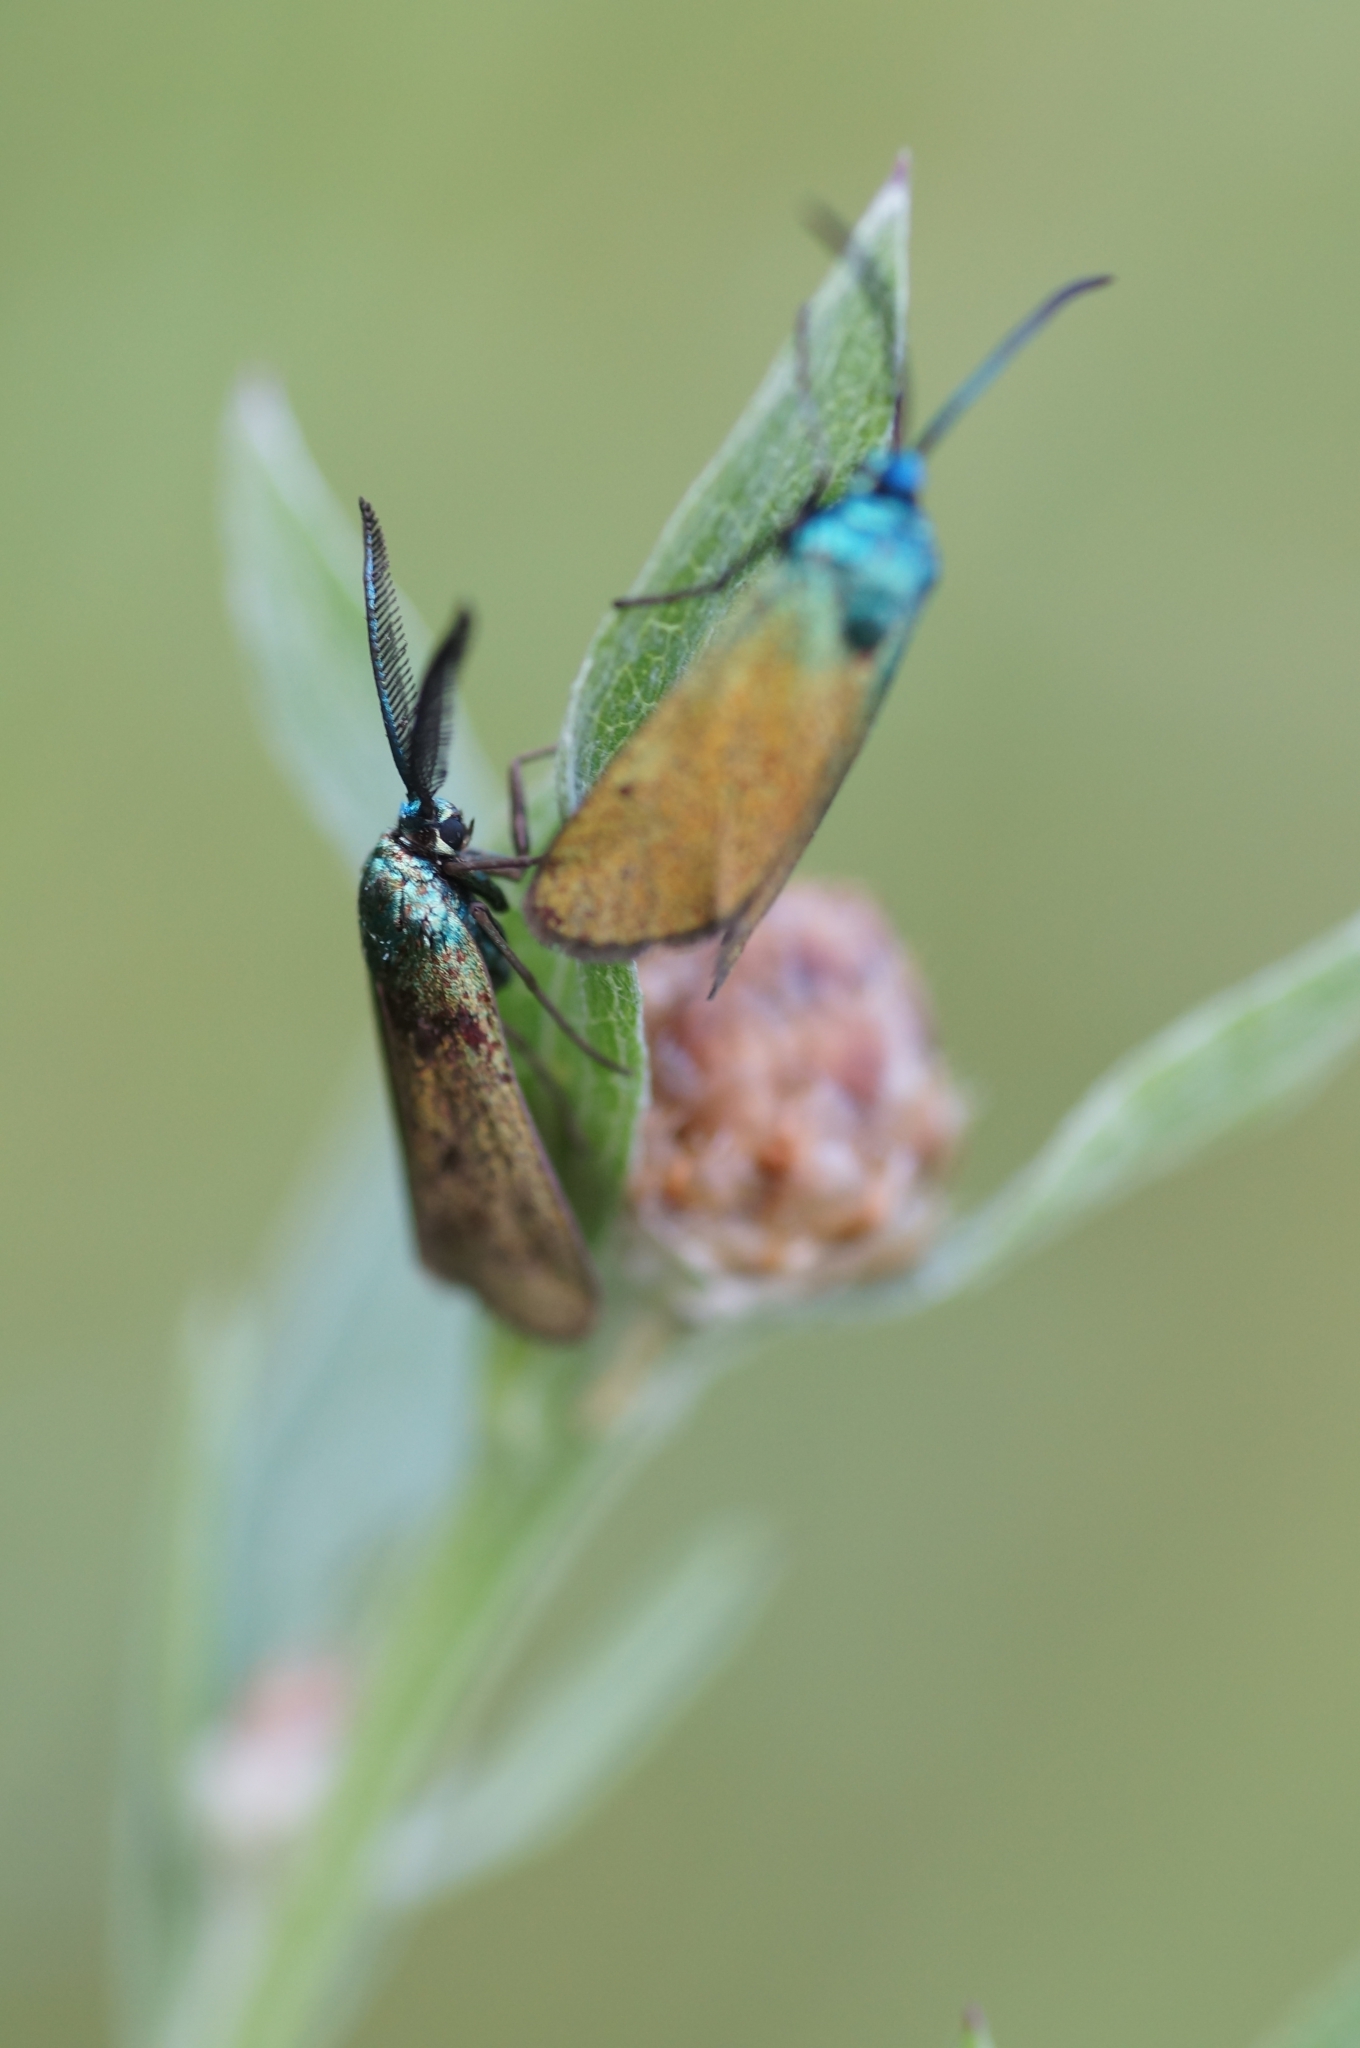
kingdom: Animalia
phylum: Arthropoda
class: Insecta
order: Lepidoptera
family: Zygaenidae
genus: Jordanita
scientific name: Jordanita chloros
